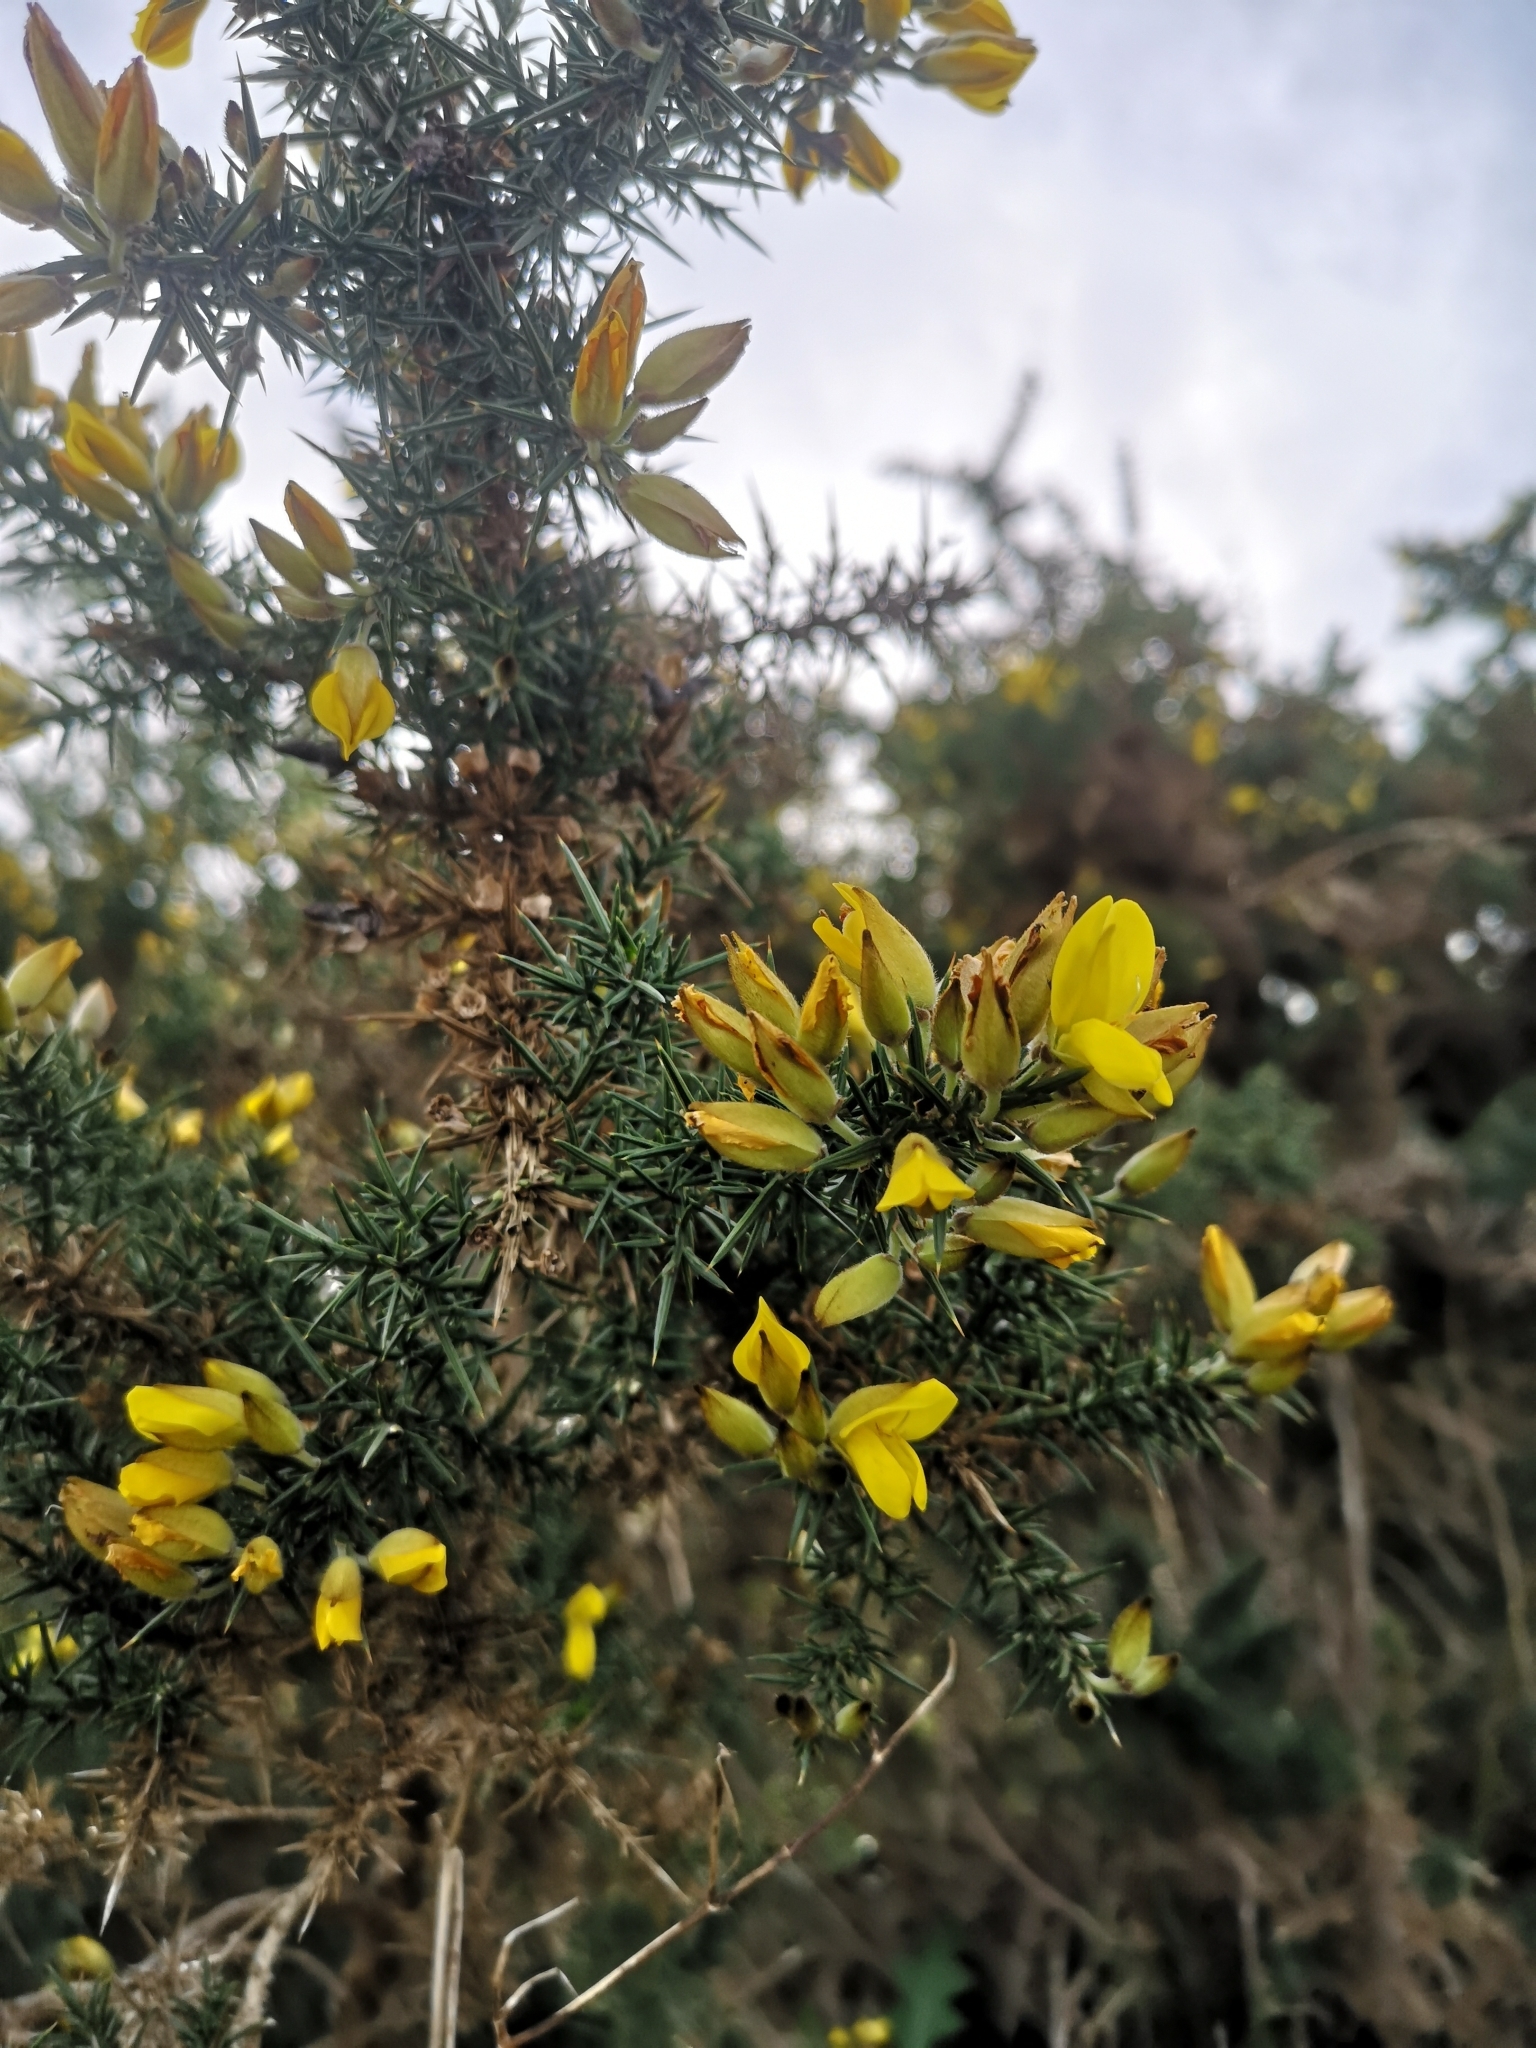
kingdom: Plantae
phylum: Tracheophyta
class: Magnoliopsida
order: Fabales
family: Fabaceae
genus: Ulex
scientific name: Ulex europaeus
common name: Common gorse
